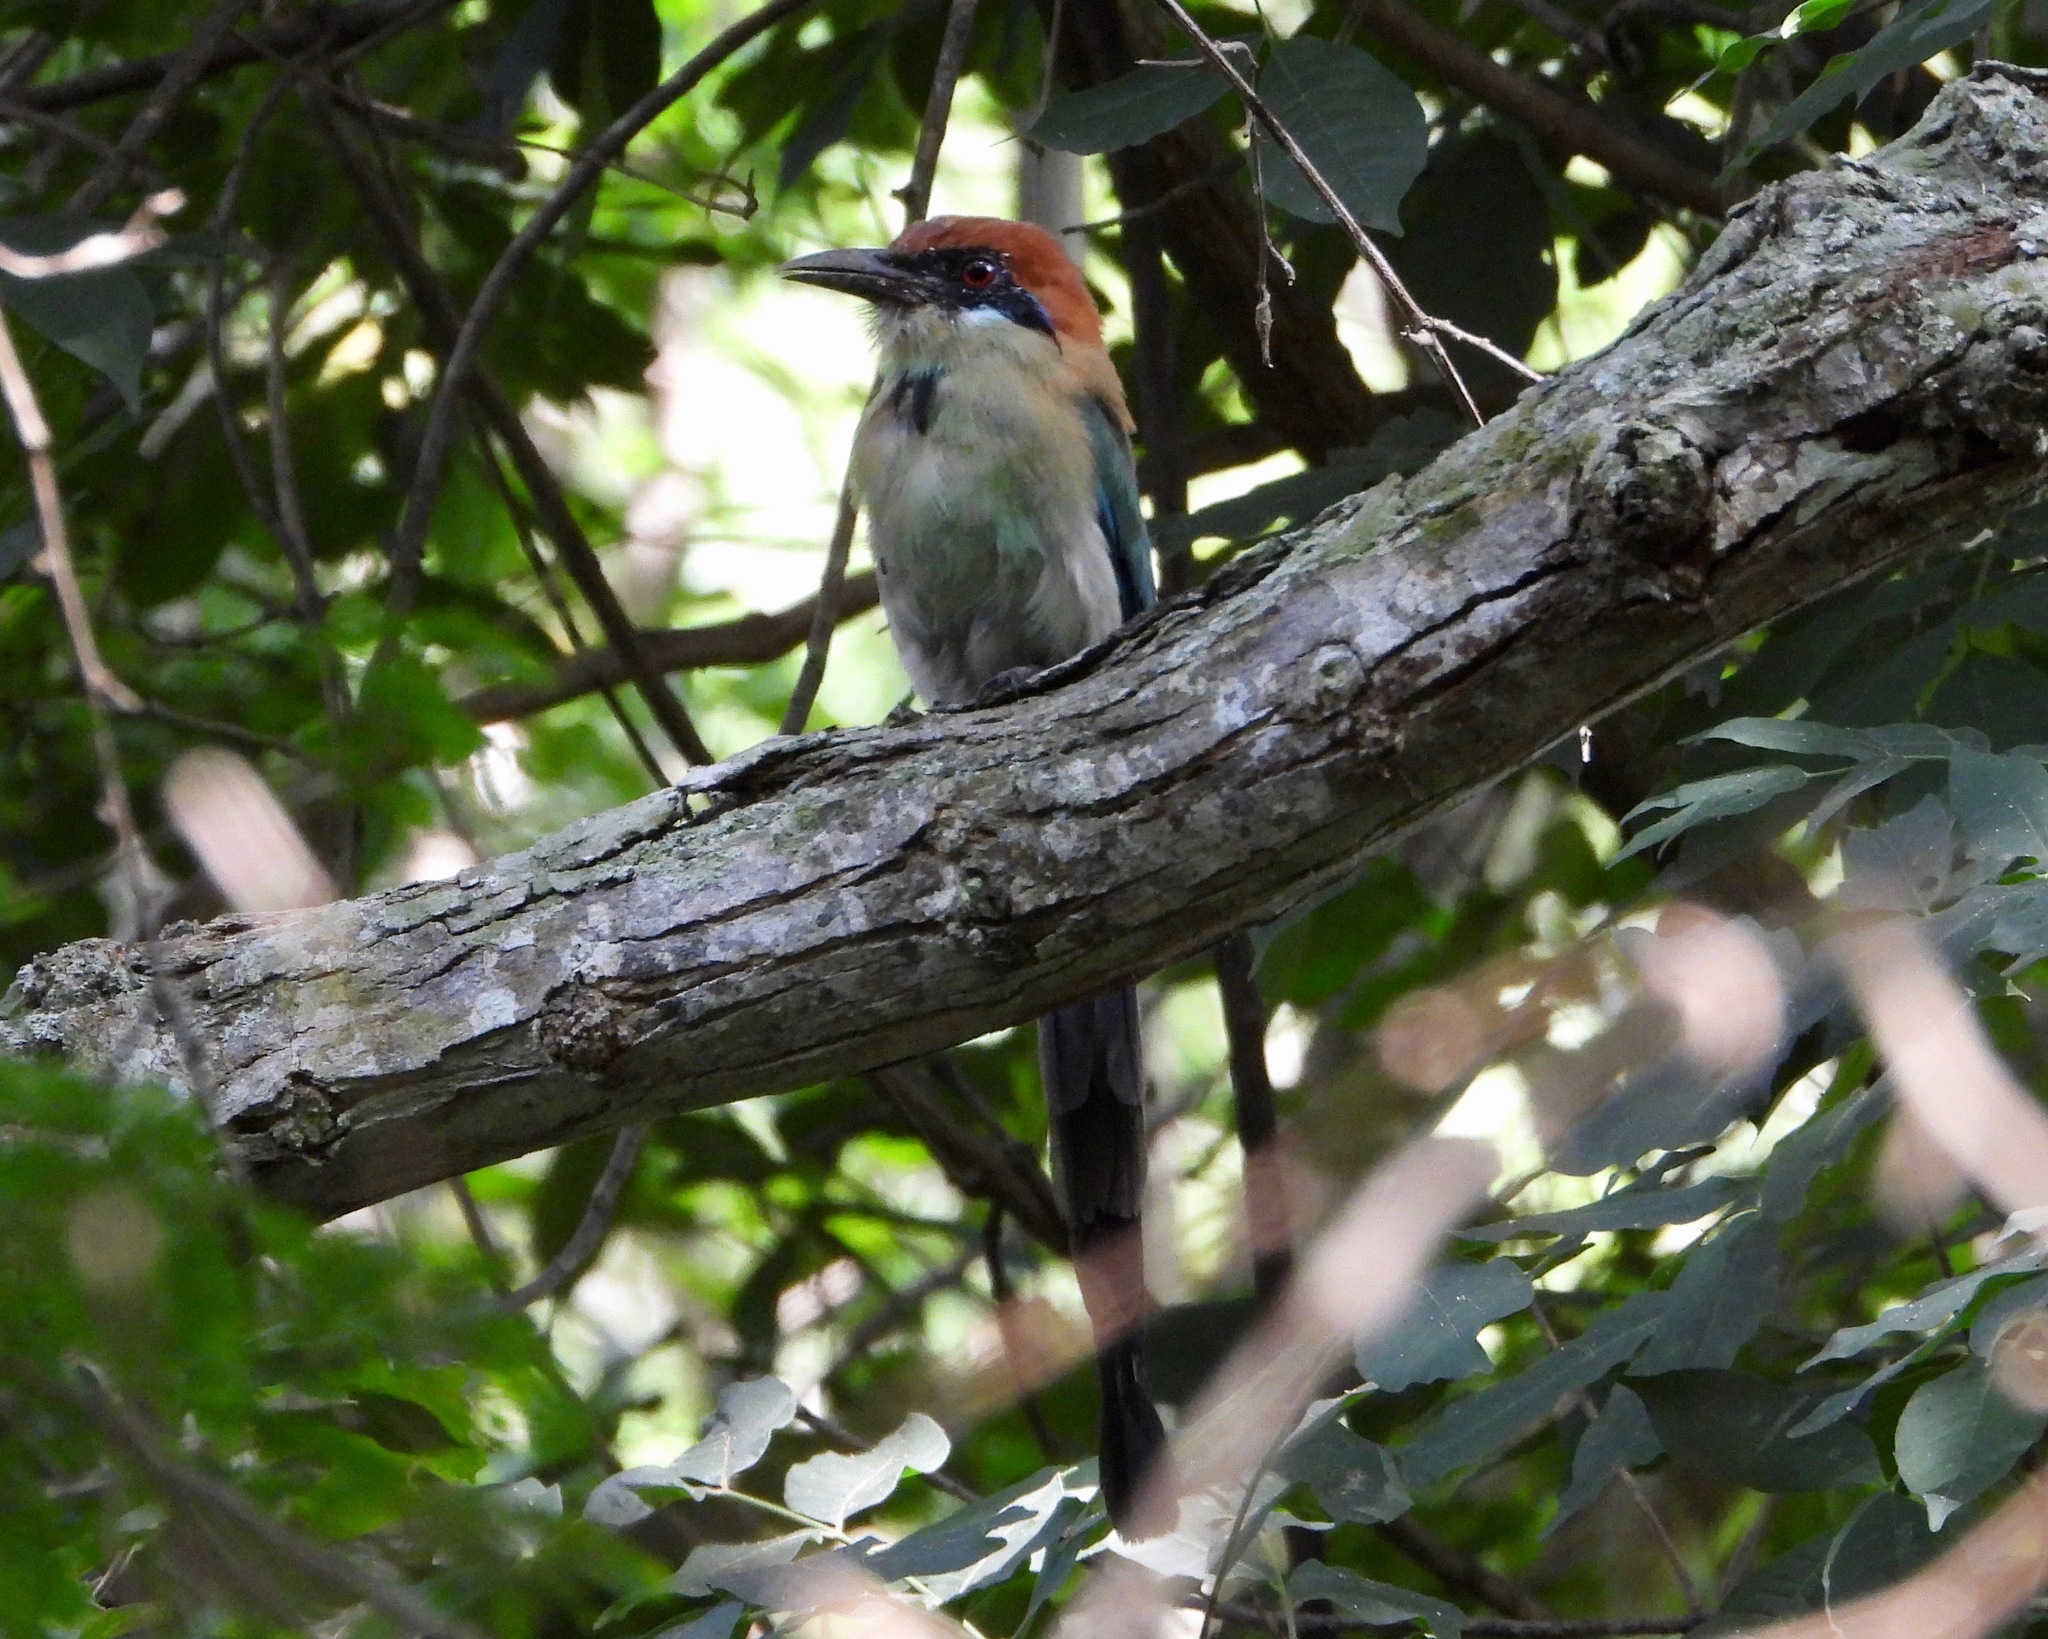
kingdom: Animalia
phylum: Chordata
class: Aves
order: Coraciiformes
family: Momotidae
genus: Momotus
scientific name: Momotus mexicanus
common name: Russet-crowned motmot
